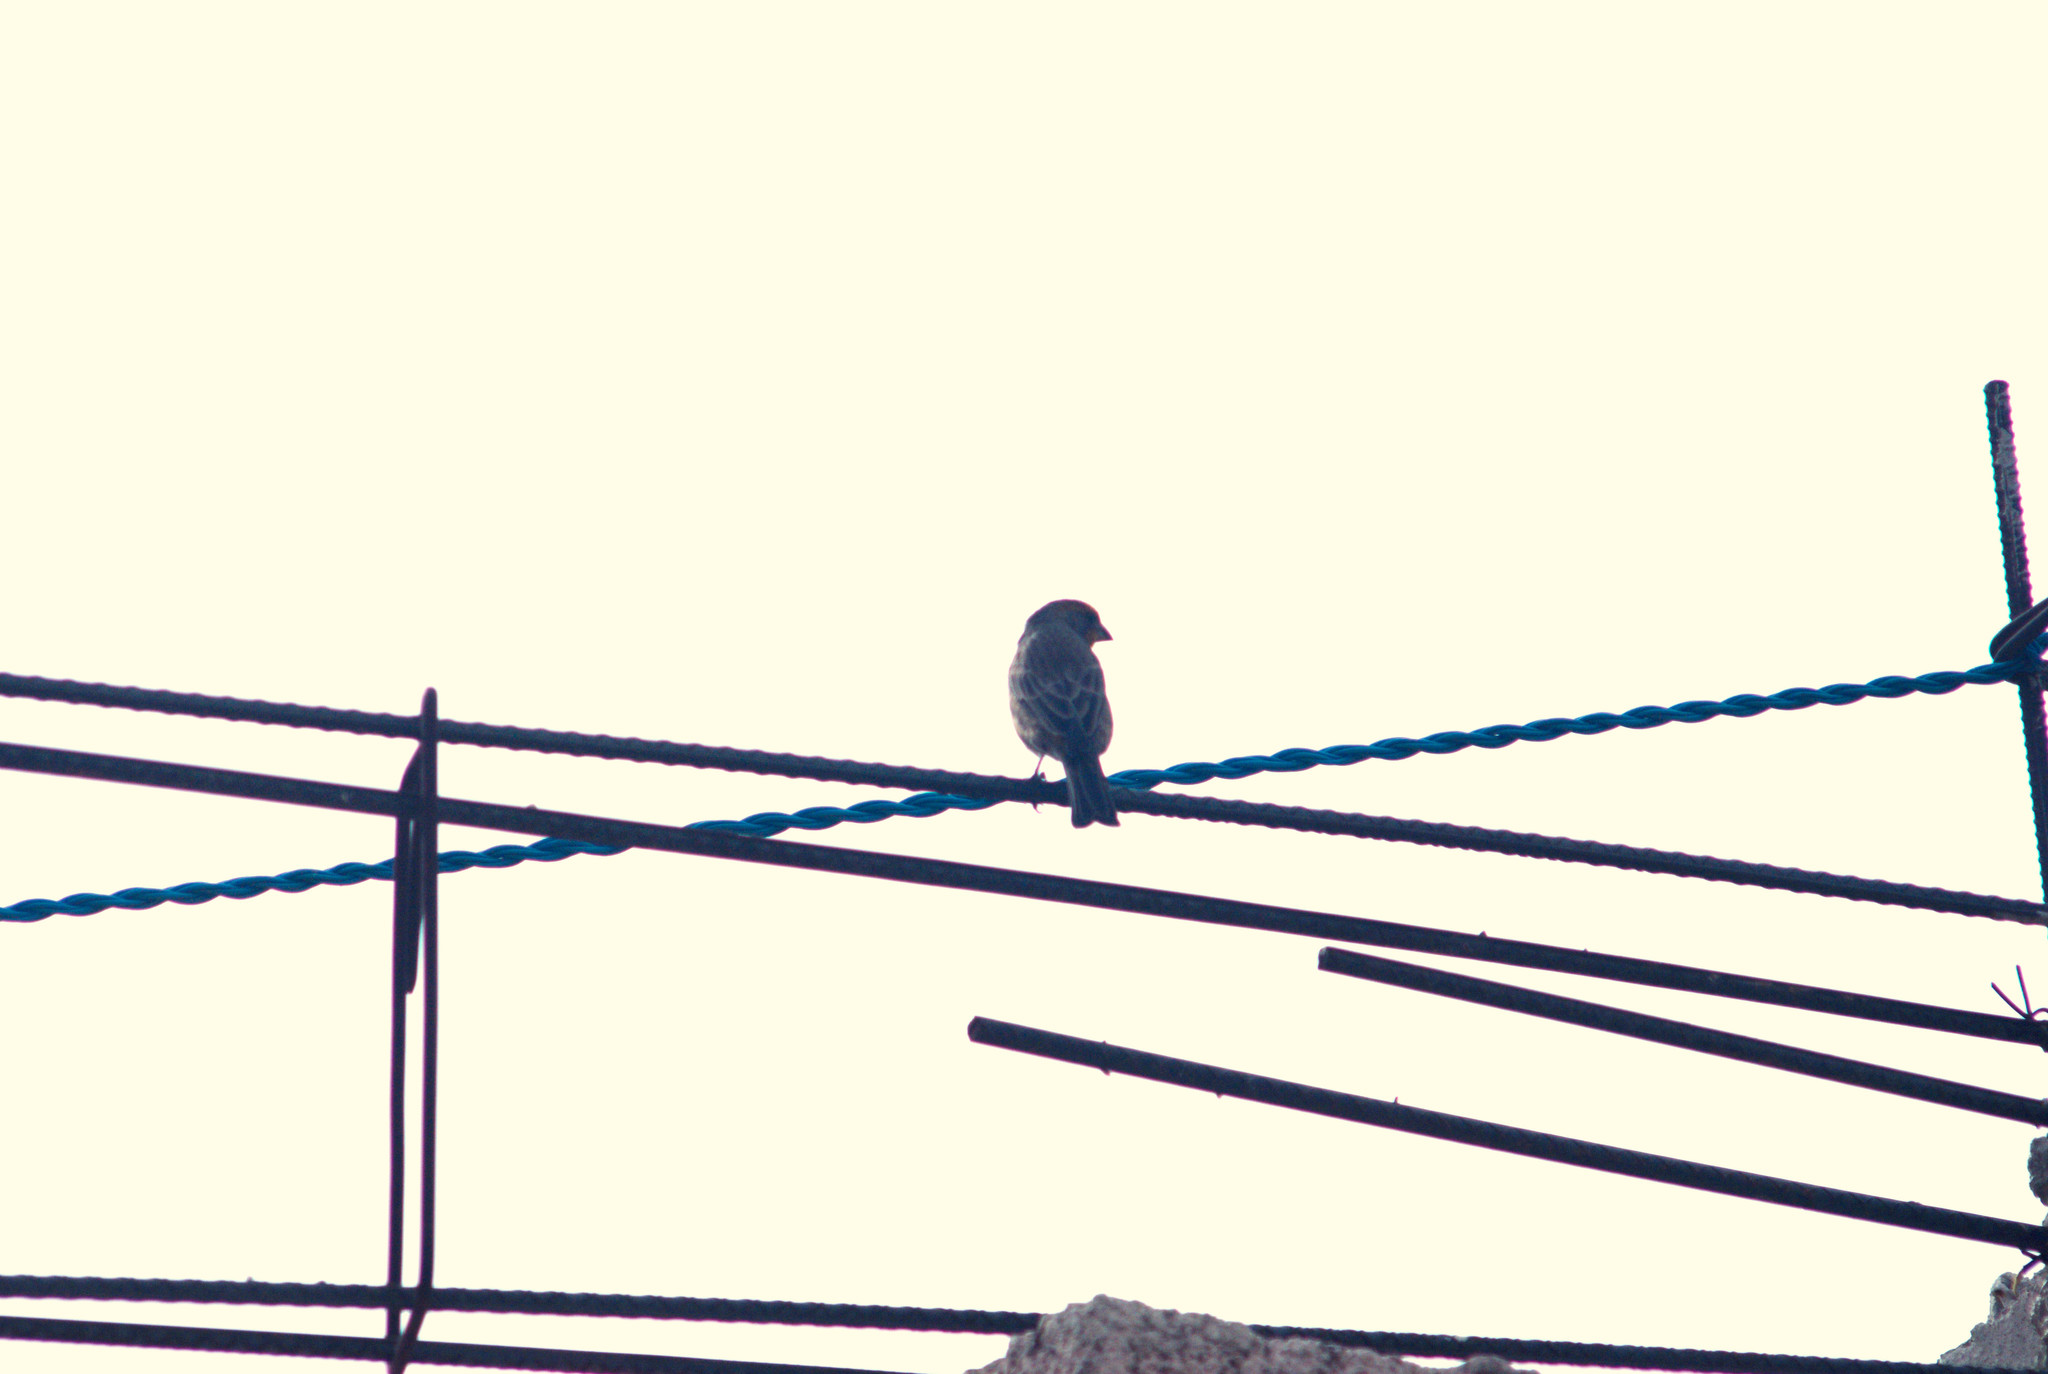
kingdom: Animalia
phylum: Chordata
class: Aves
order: Passeriformes
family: Fringillidae
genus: Haemorhous
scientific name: Haemorhous mexicanus
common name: House finch
